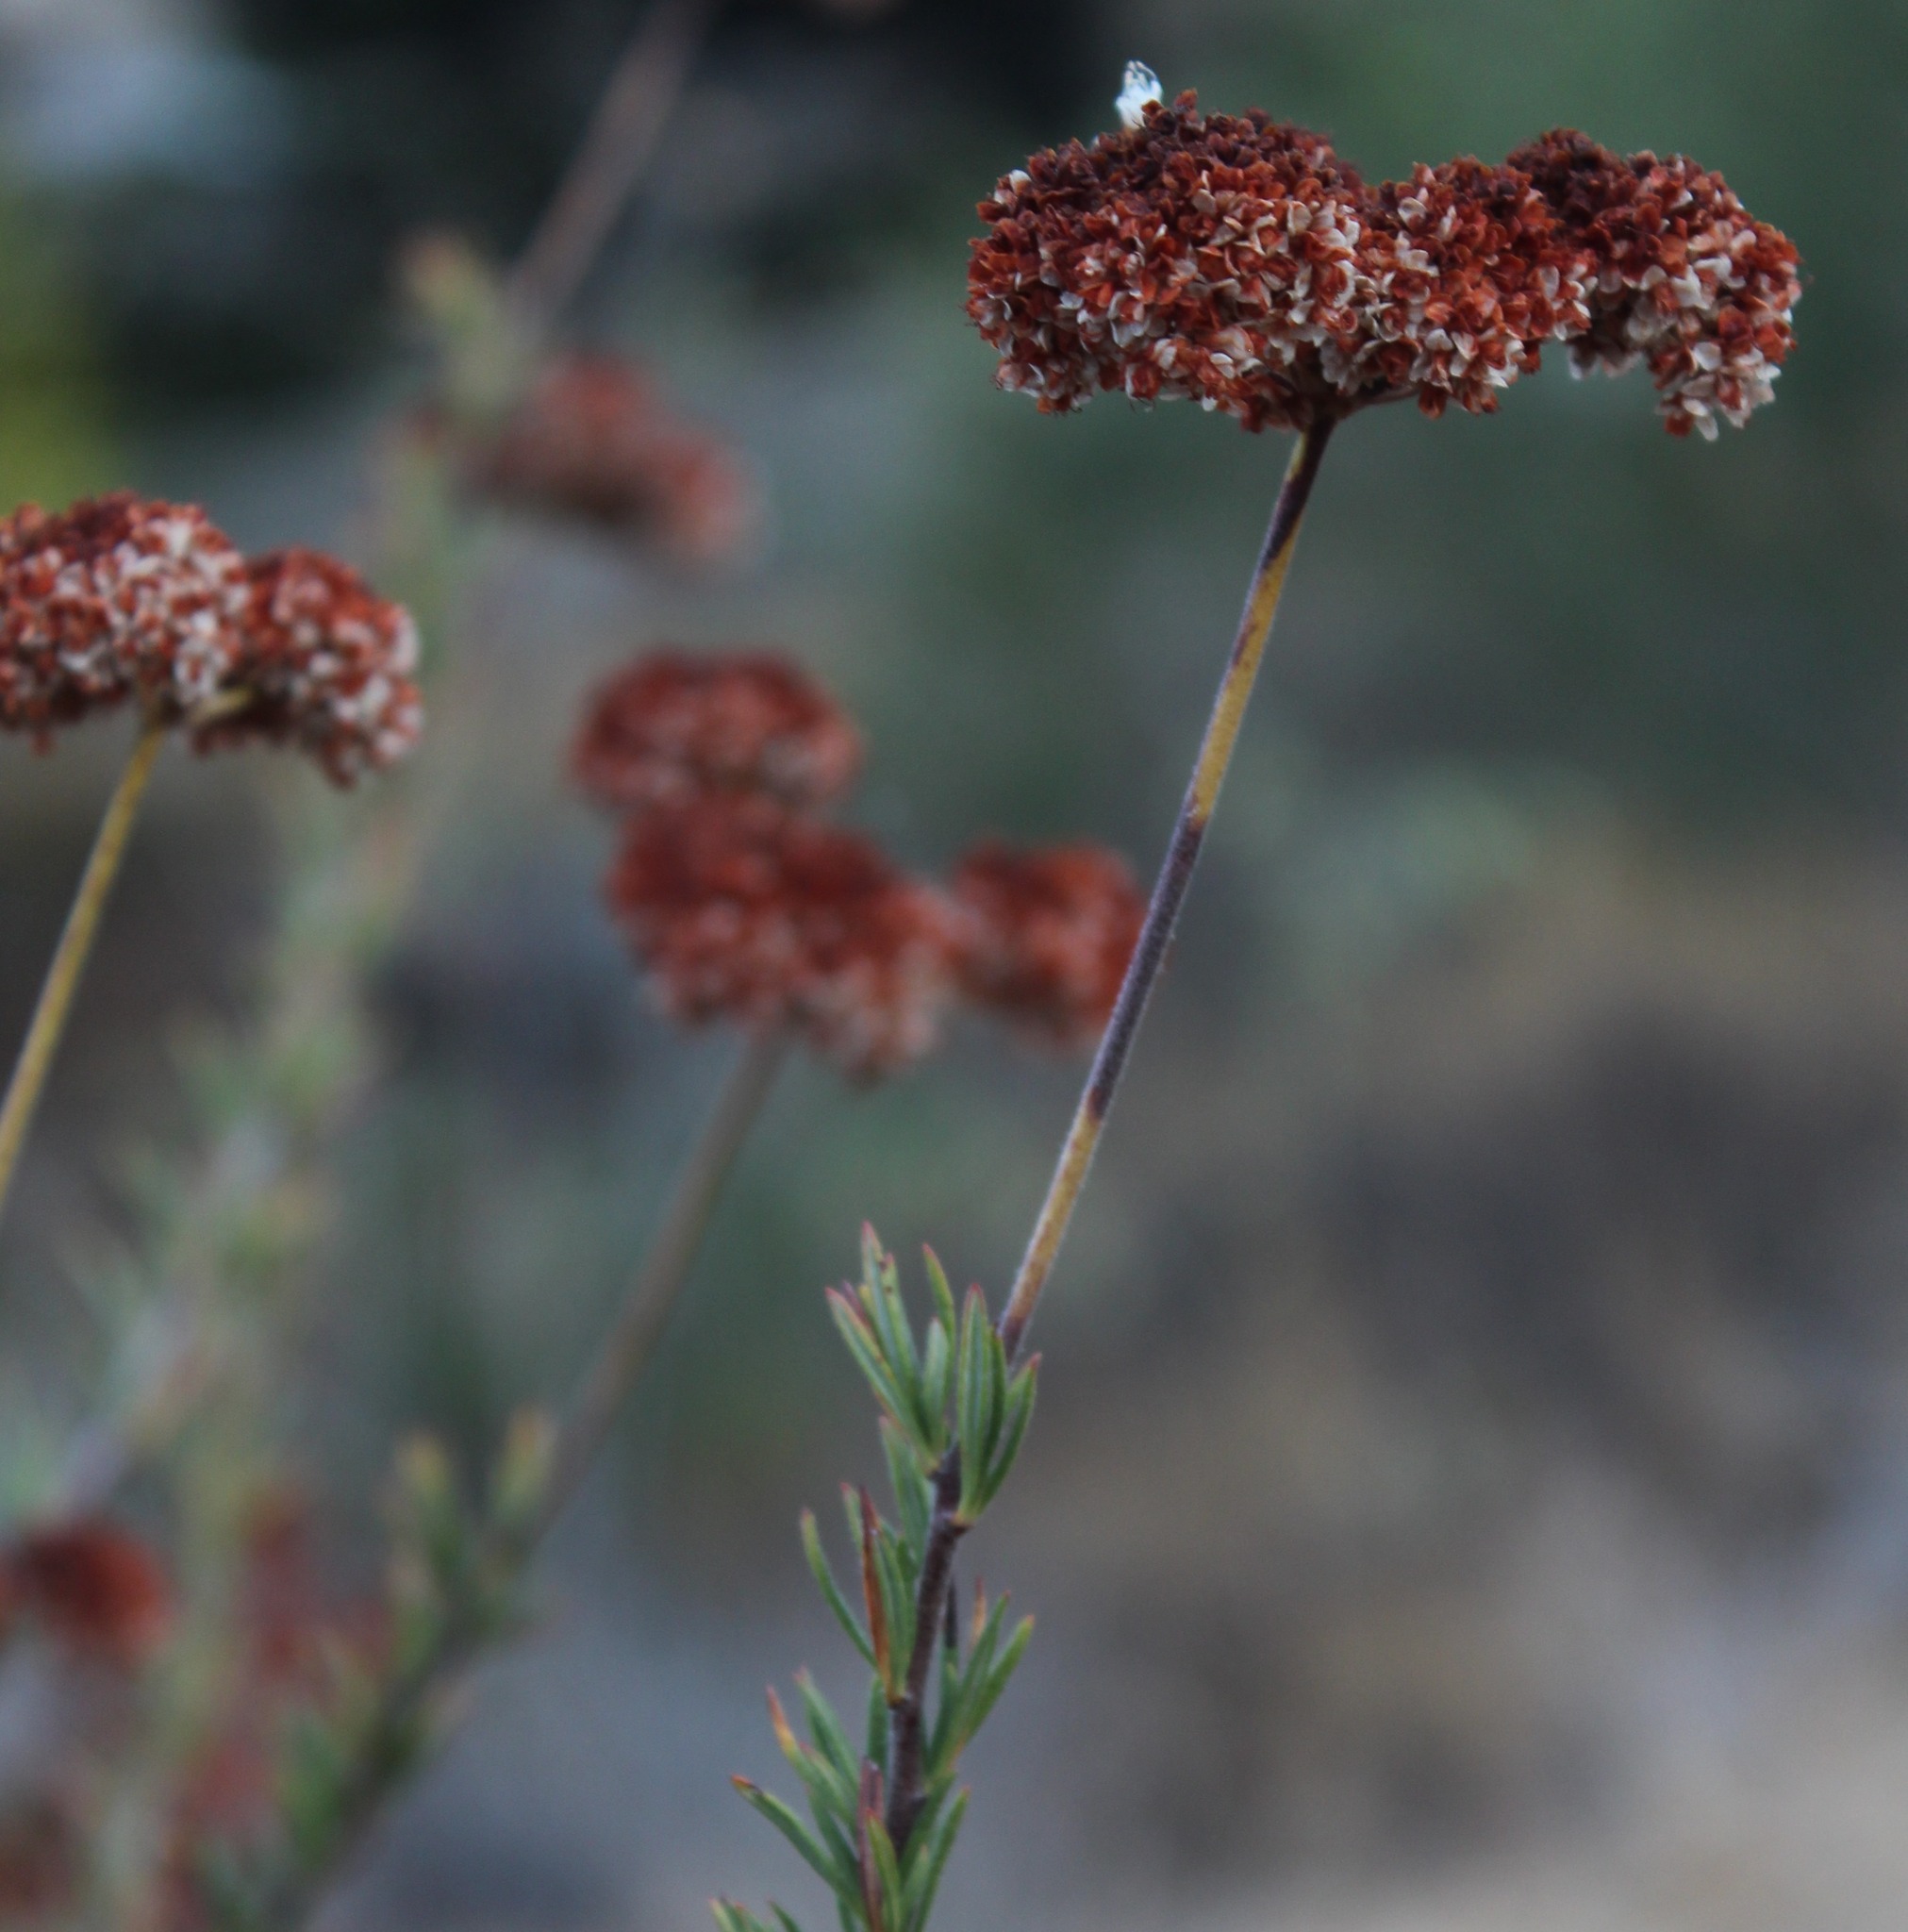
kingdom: Plantae
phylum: Tracheophyta
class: Magnoliopsida
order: Caryophyllales
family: Polygonaceae
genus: Eriogonum
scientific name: Eriogonum fasciculatum
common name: California wild buckwheat
